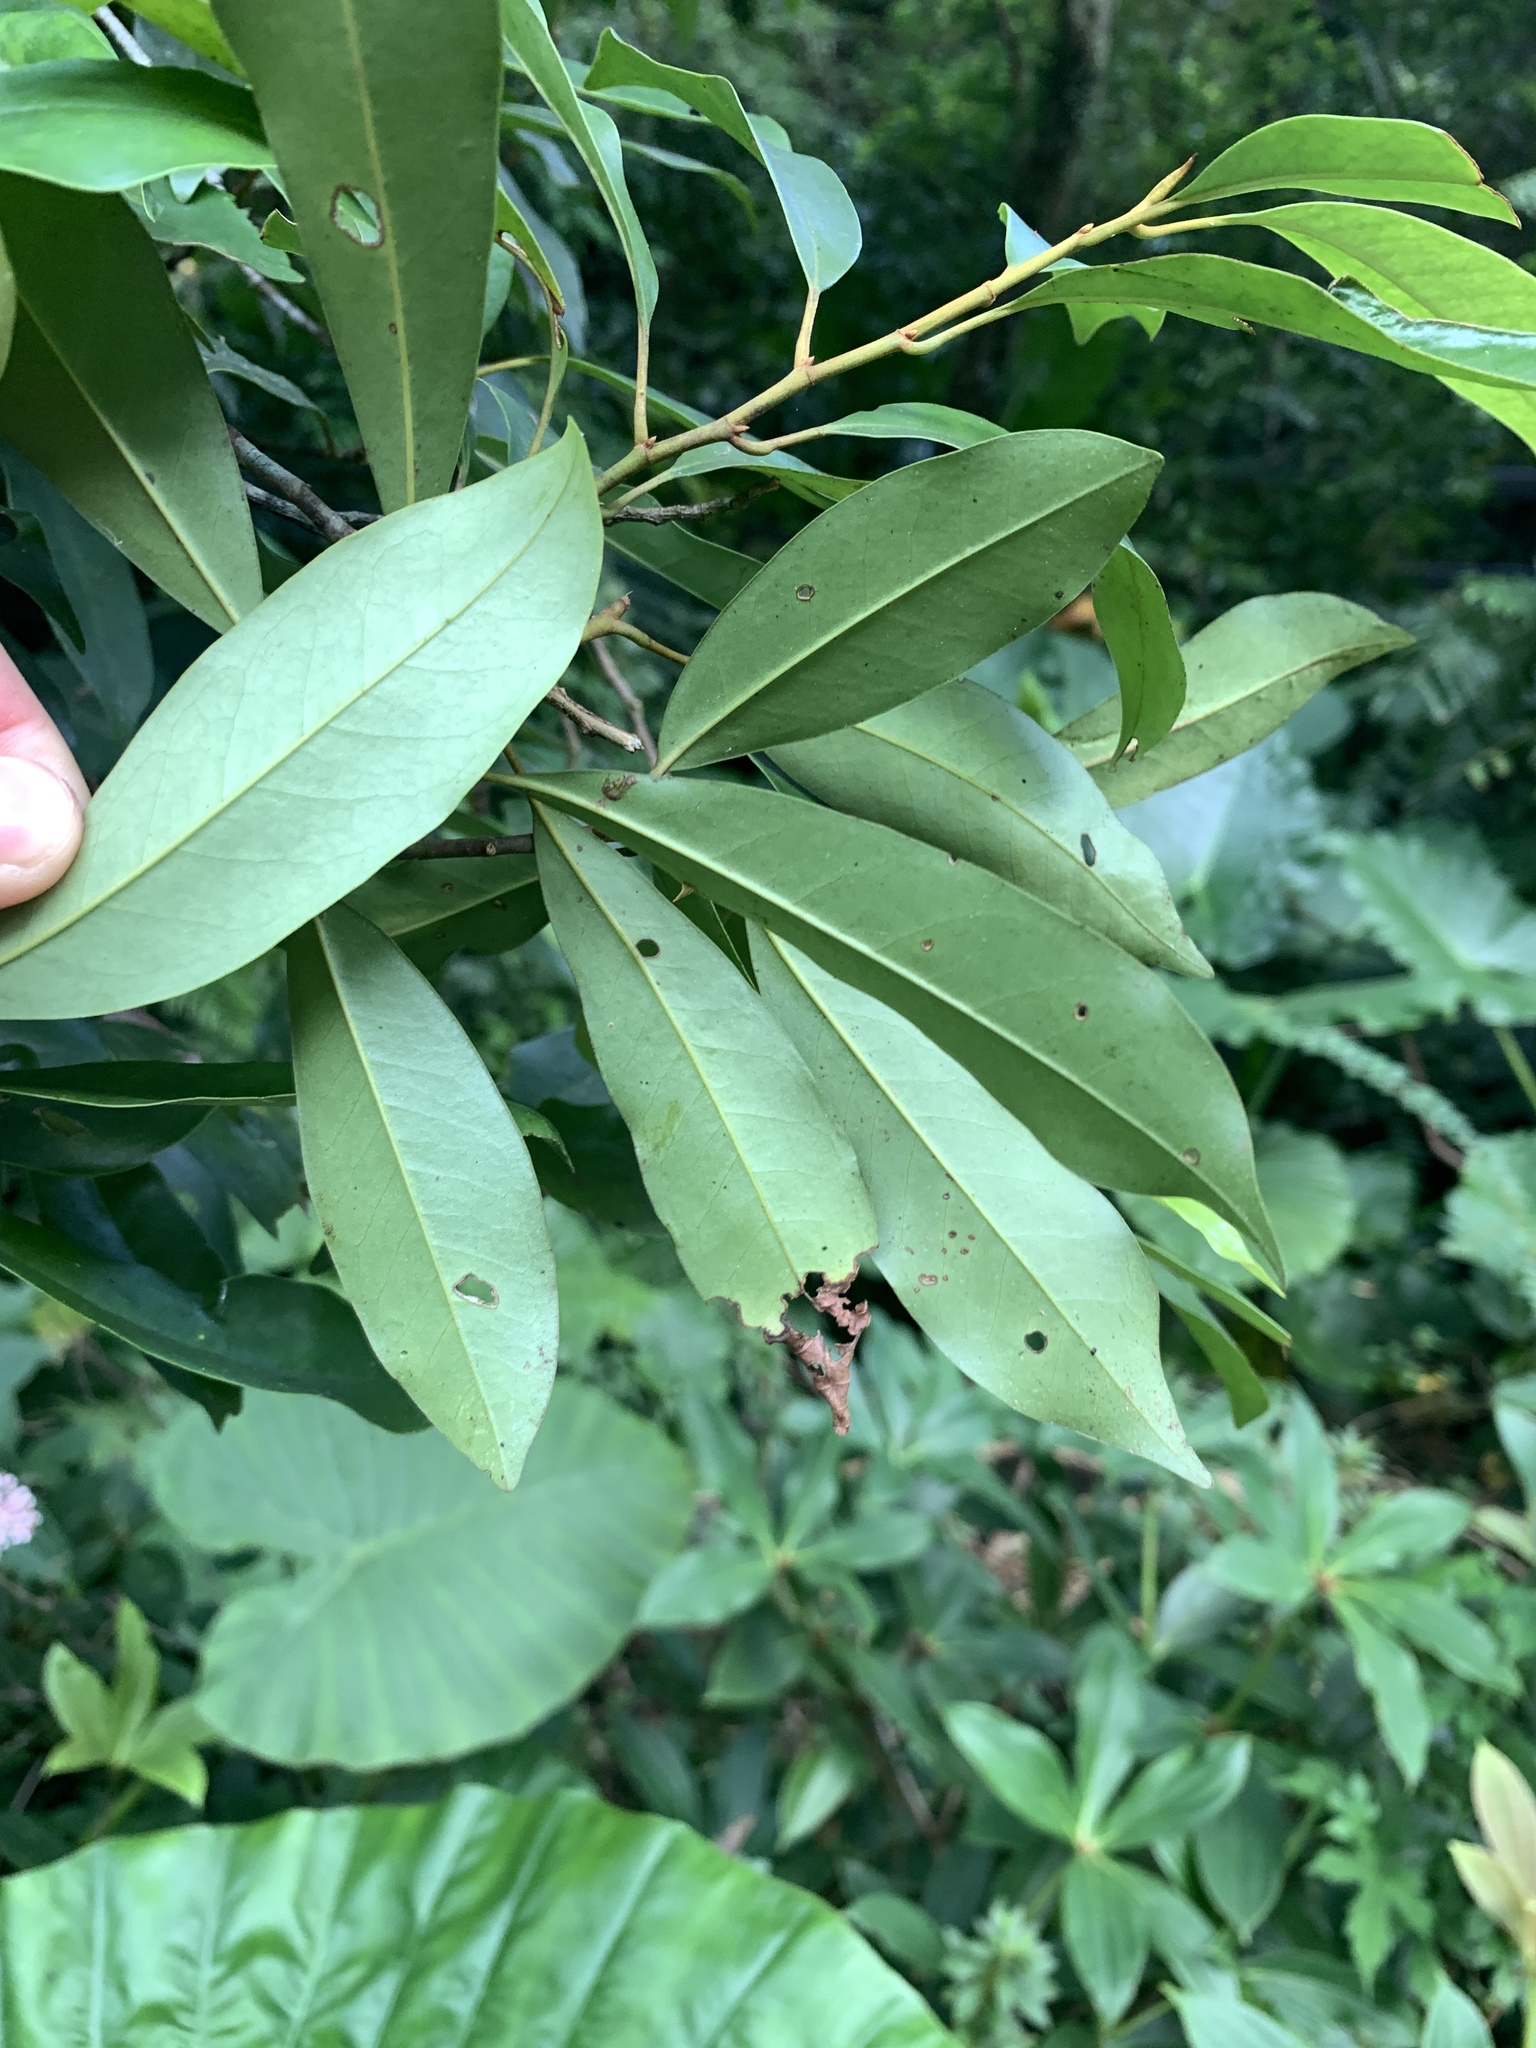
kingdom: Plantae
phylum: Tracheophyta
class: Magnoliopsida
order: Magnoliales
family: Magnoliaceae
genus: Magnolia
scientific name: Magnolia compressa
